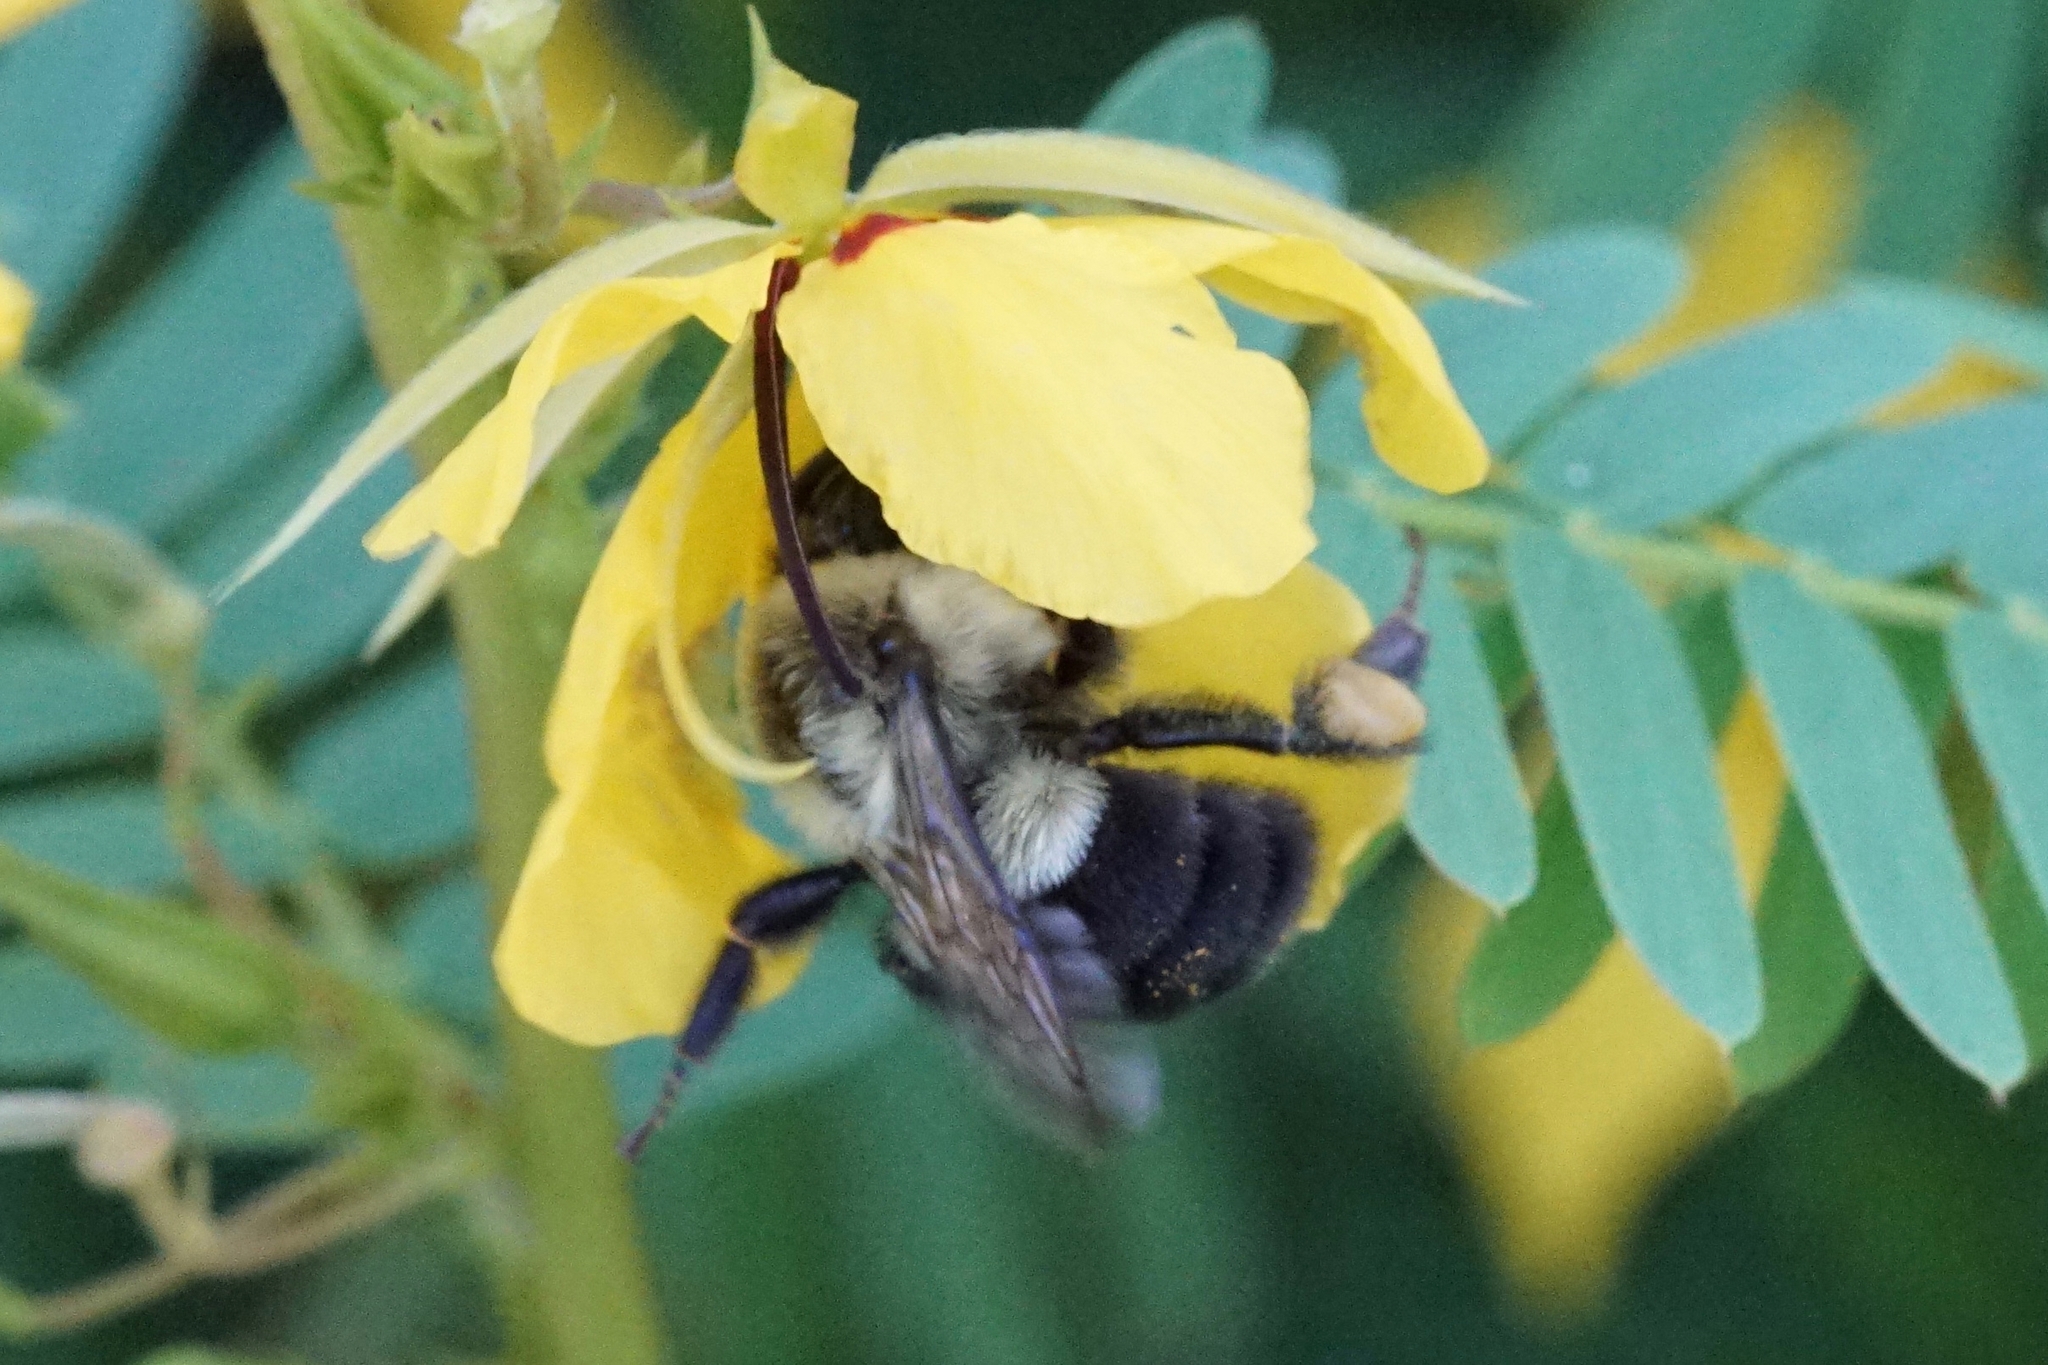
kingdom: Animalia
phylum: Arthropoda
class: Insecta
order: Hymenoptera
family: Apidae
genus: Bombus
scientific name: Bombus impatiens
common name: Common eastern bumble bee
